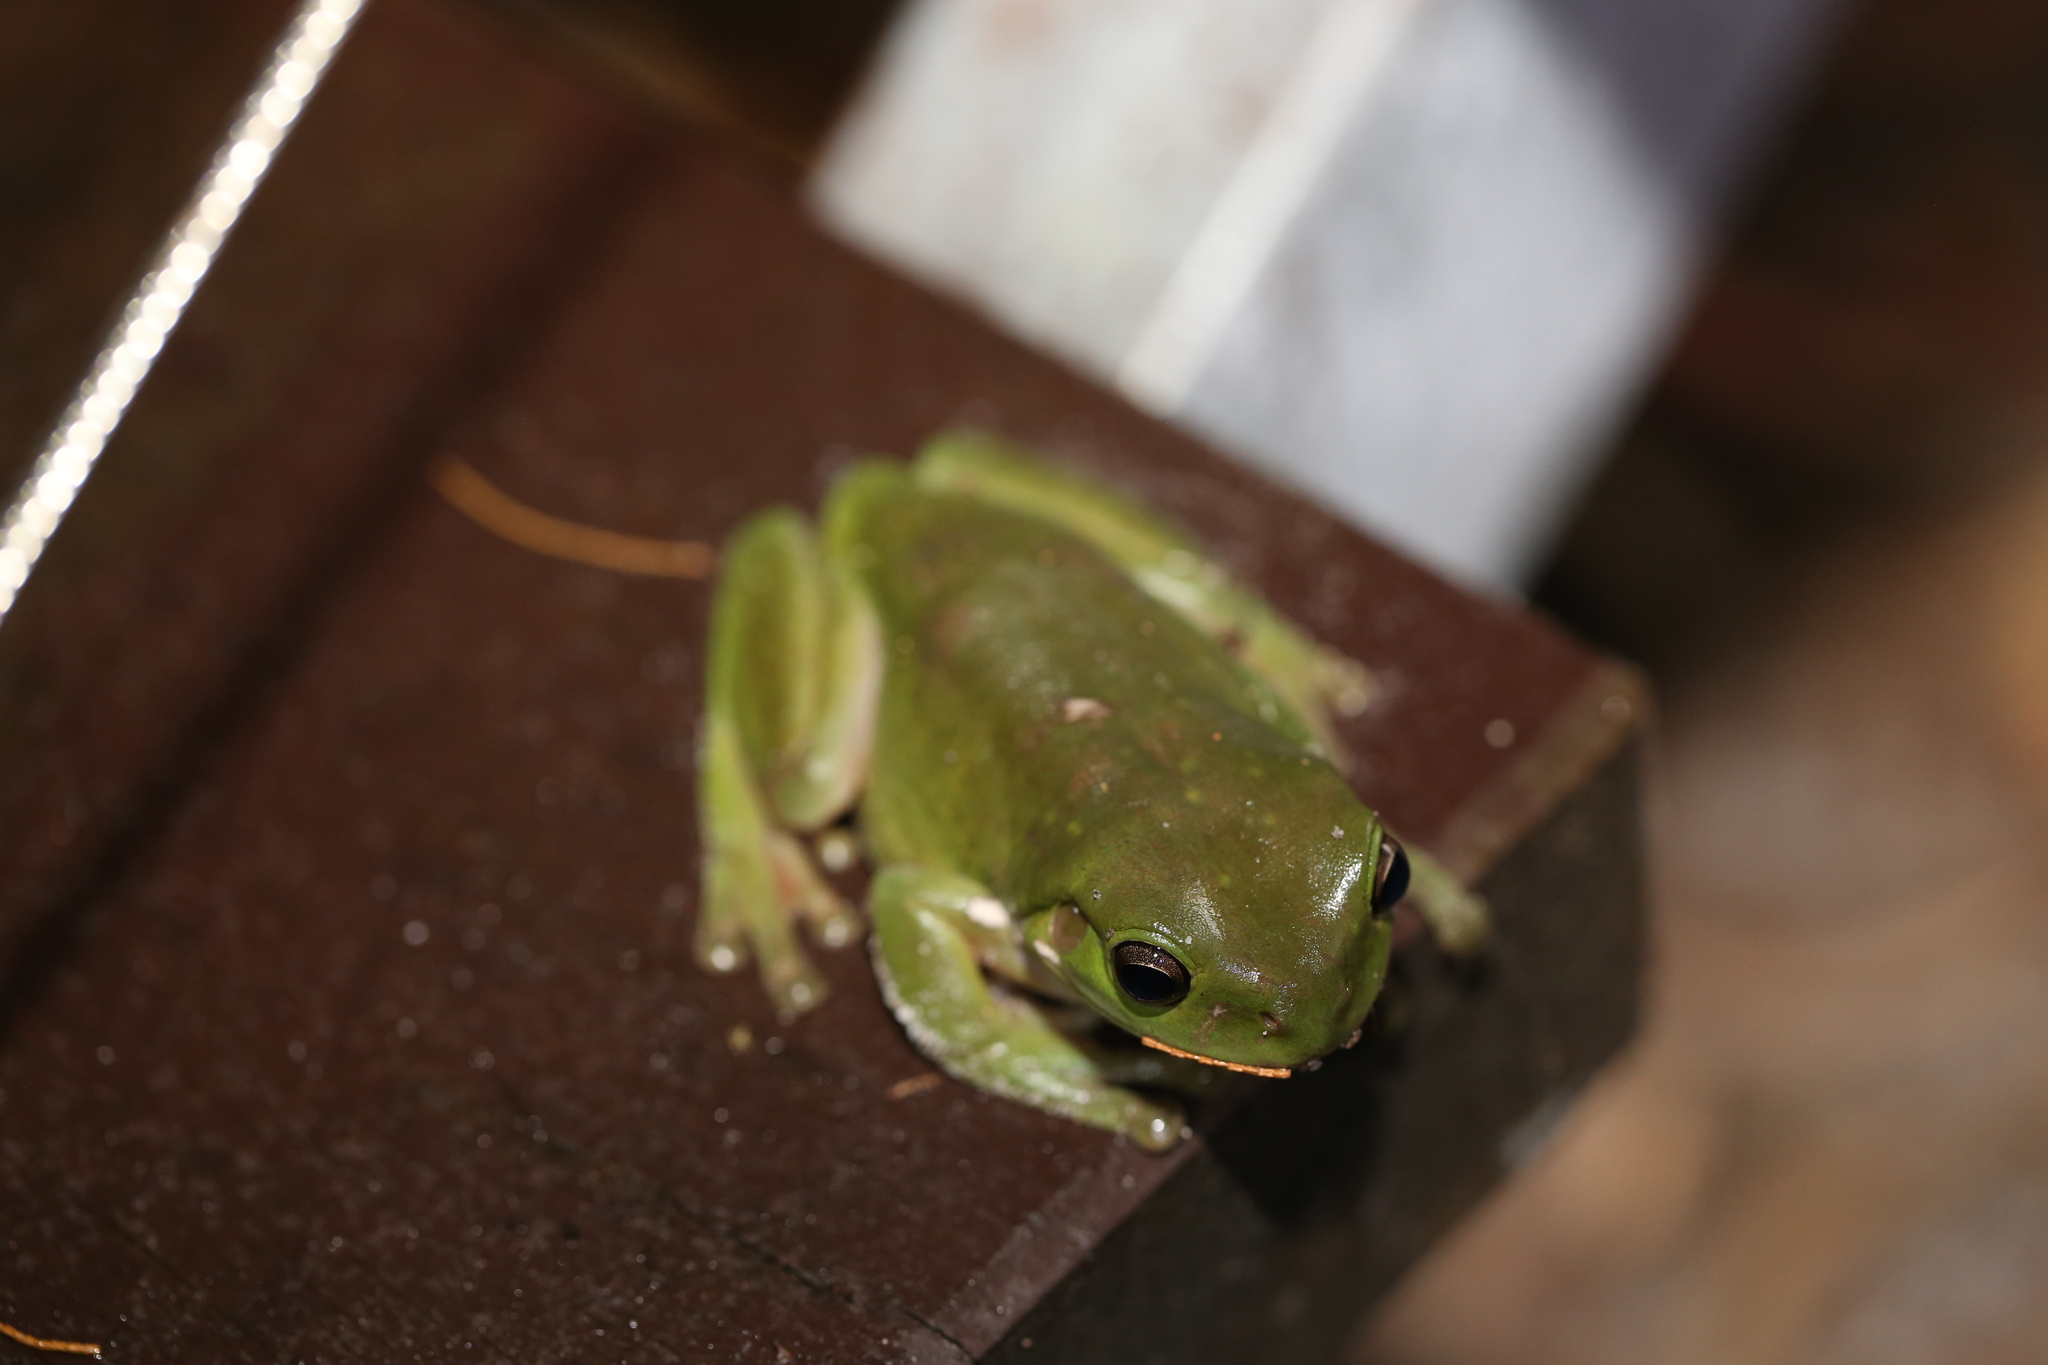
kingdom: Animalia
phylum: Chordata
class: Amphibia
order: Anura
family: Pelodryadidae
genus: Ranoidea
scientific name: Ranoidea caerulea
